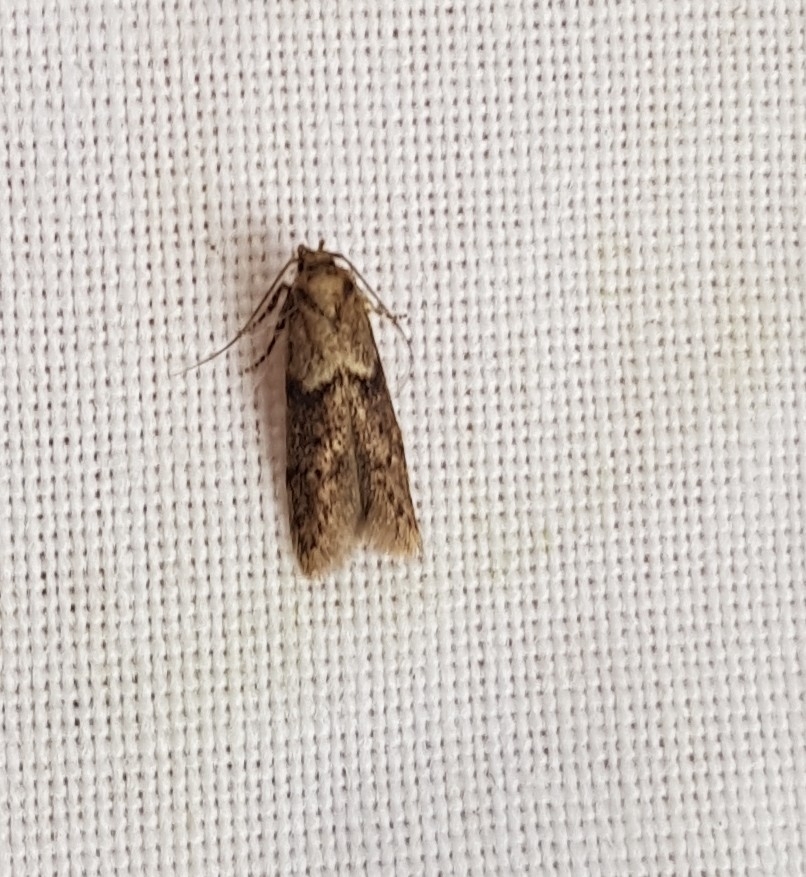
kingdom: Animalia
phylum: Arthropoda
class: Insecta
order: Lepidoptera
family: Blastobasidae
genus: Blastobasis
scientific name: Blastobasis adustella
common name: Dingy dowd
